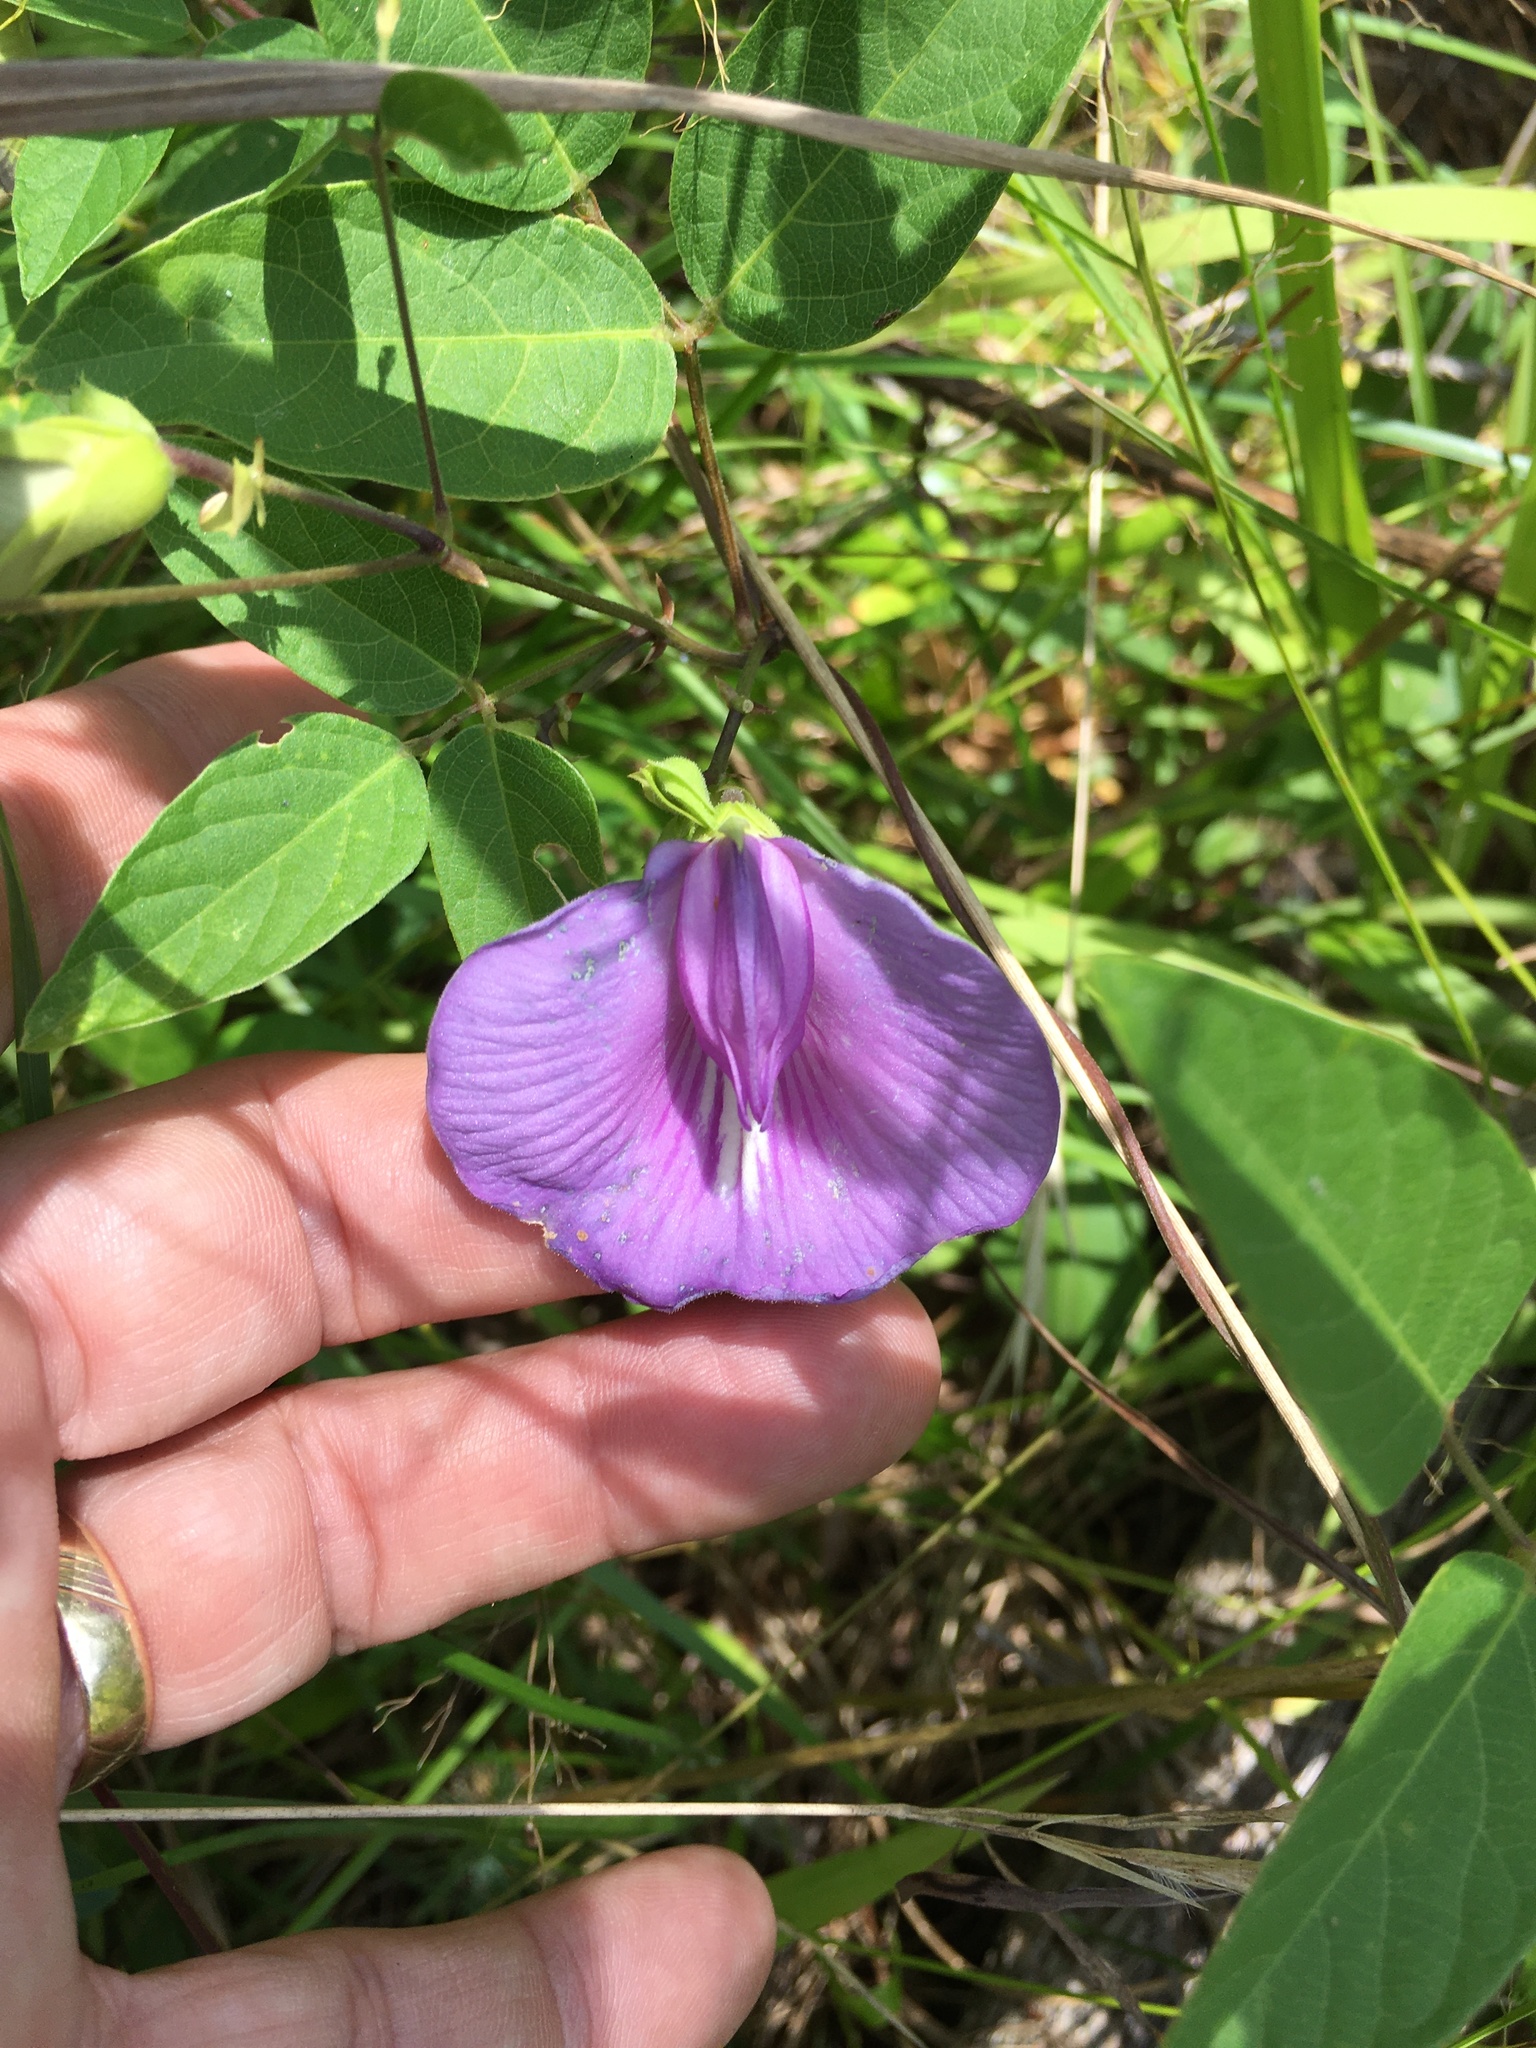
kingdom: Plantae
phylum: Tracheophyta
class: Magnoliopsida
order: Fabales
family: Fabaceae
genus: Centrosema
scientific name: Centrosema virginianum
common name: Butterfly-pea
